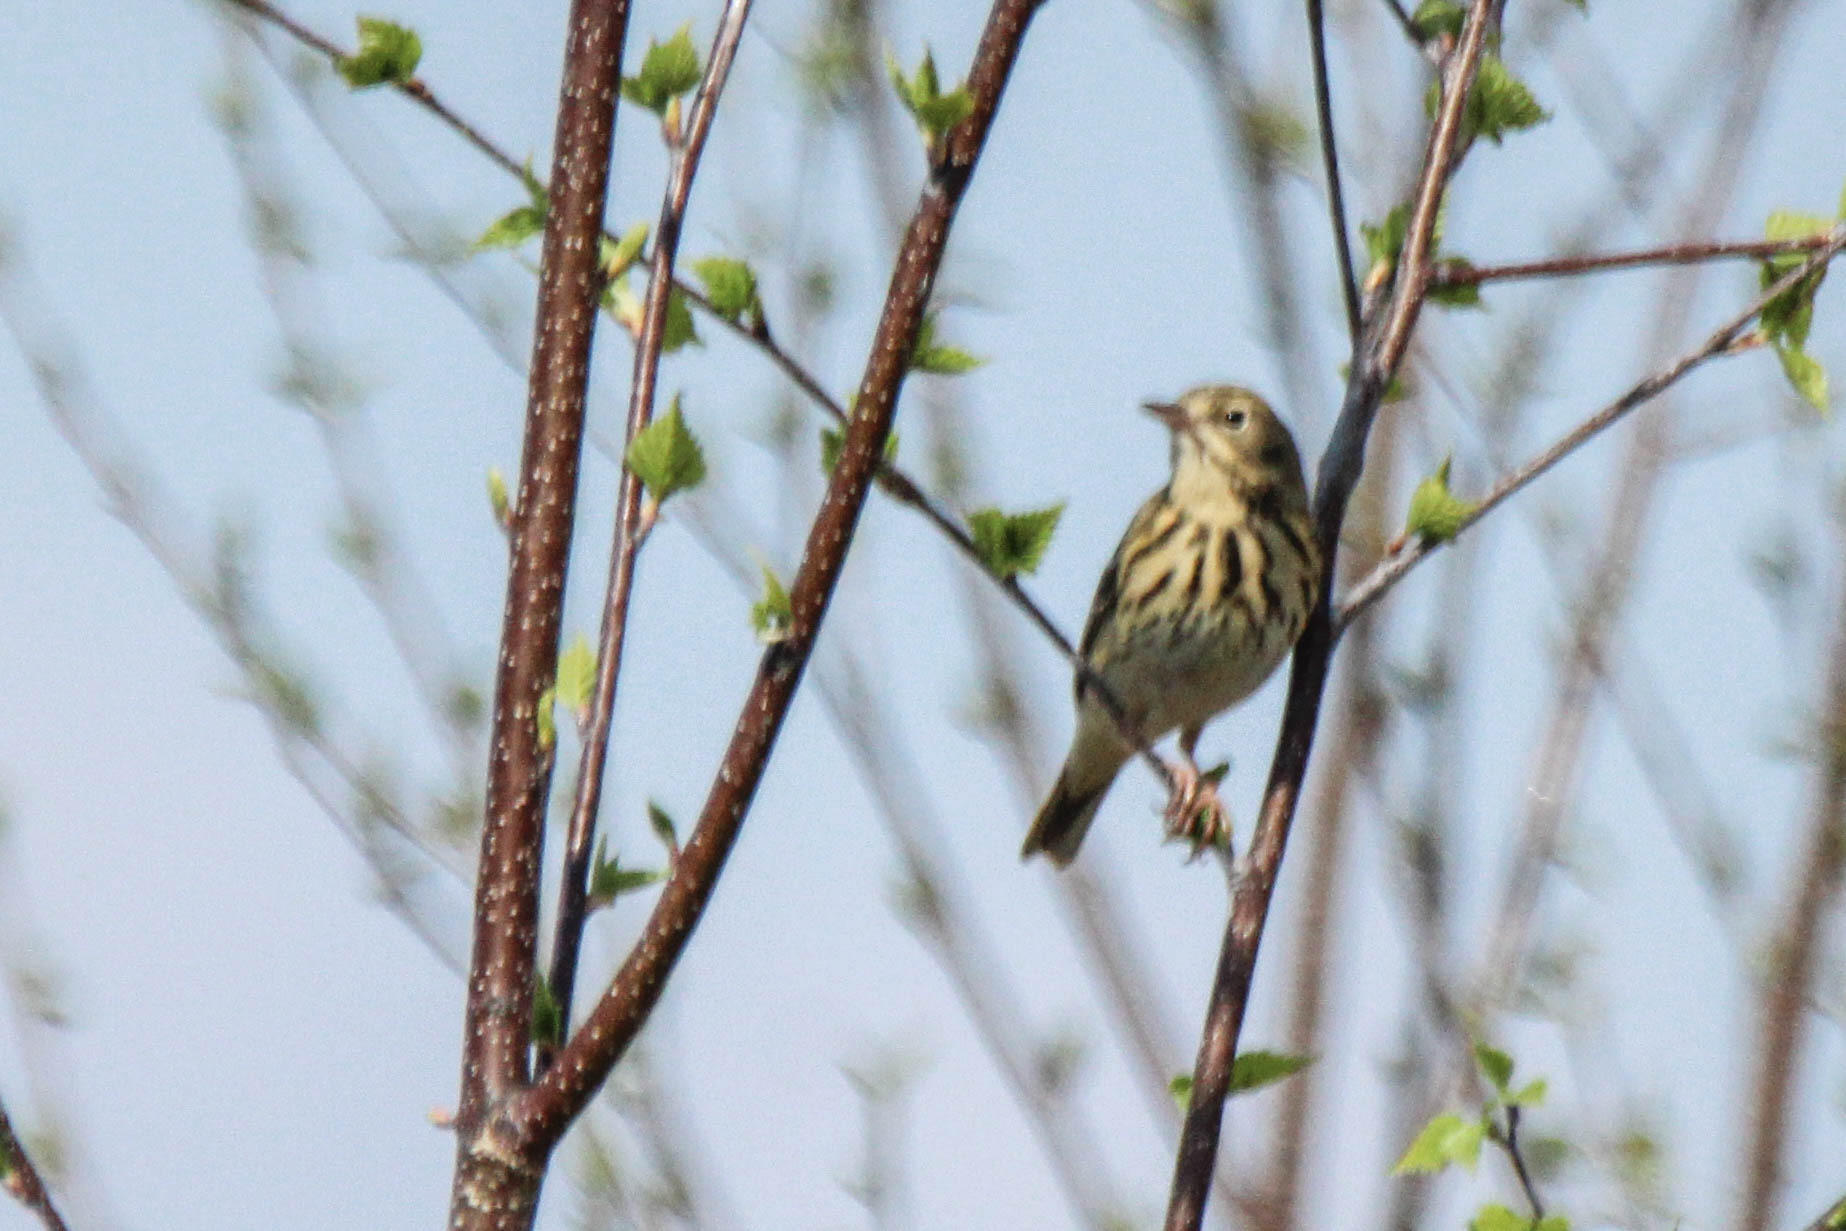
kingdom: Animalia
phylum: Chordata
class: Aves
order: Passeriformes
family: Motacillidae
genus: Anthus
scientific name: Anthus trivialis
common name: Tree pipit
